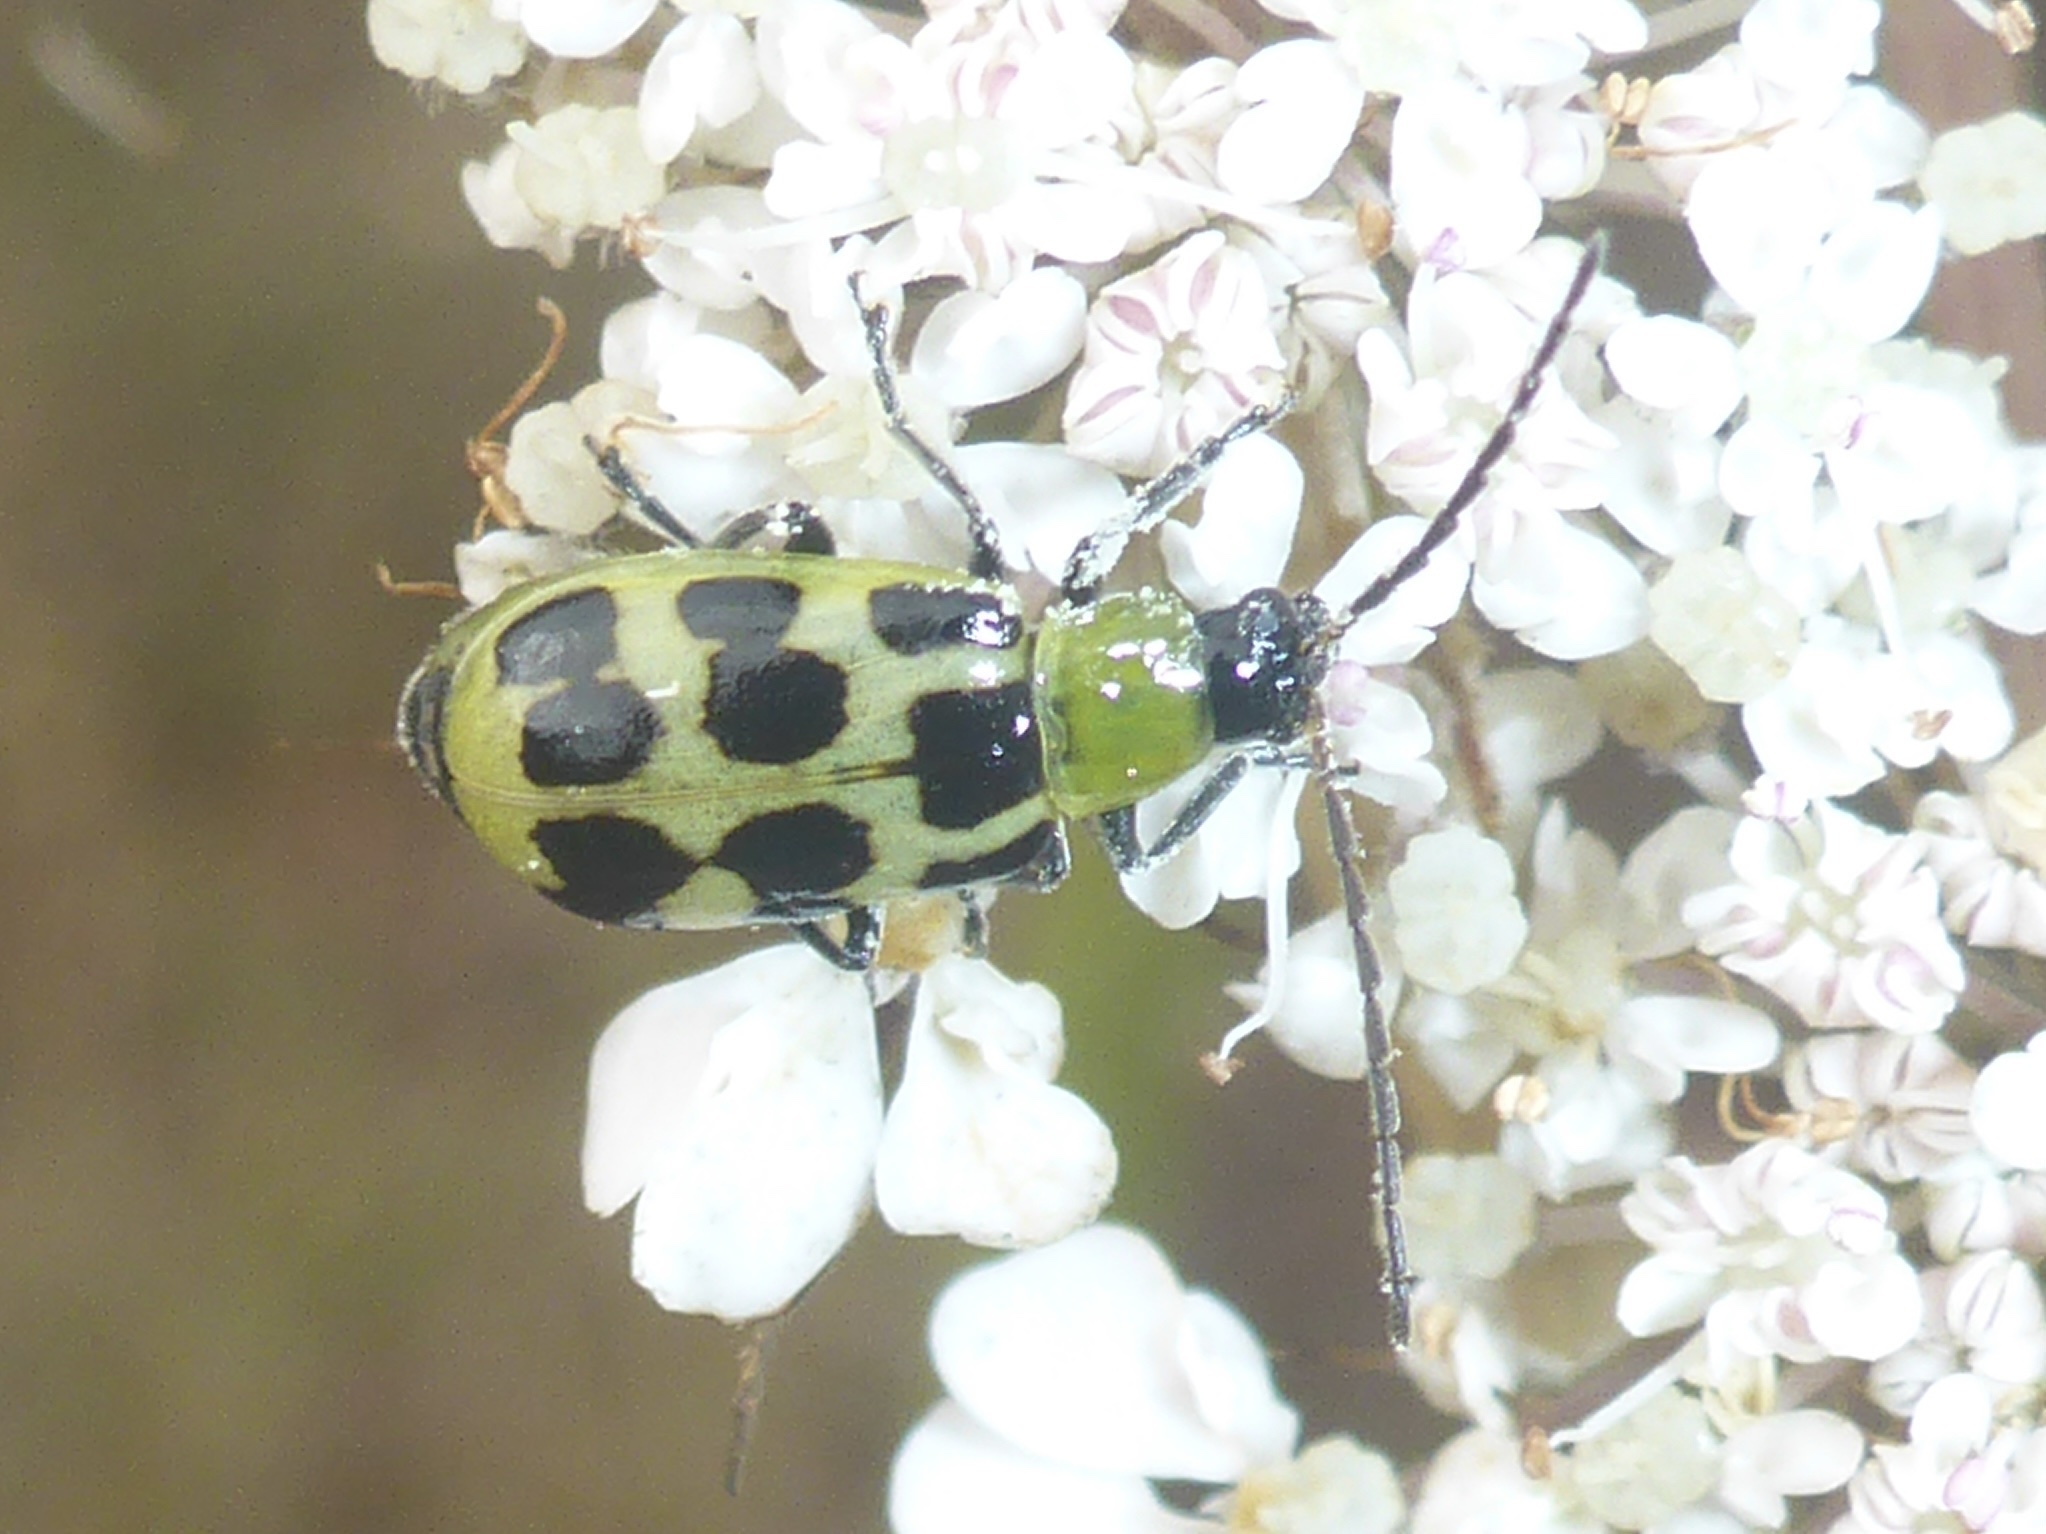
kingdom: Animalia
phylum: Arthropoda
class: Insecta
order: Coleoptera
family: Chrysomelidae
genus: Diabrotica
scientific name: Diabrotica undecimpunctata
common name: Spotted cucumber beetle
